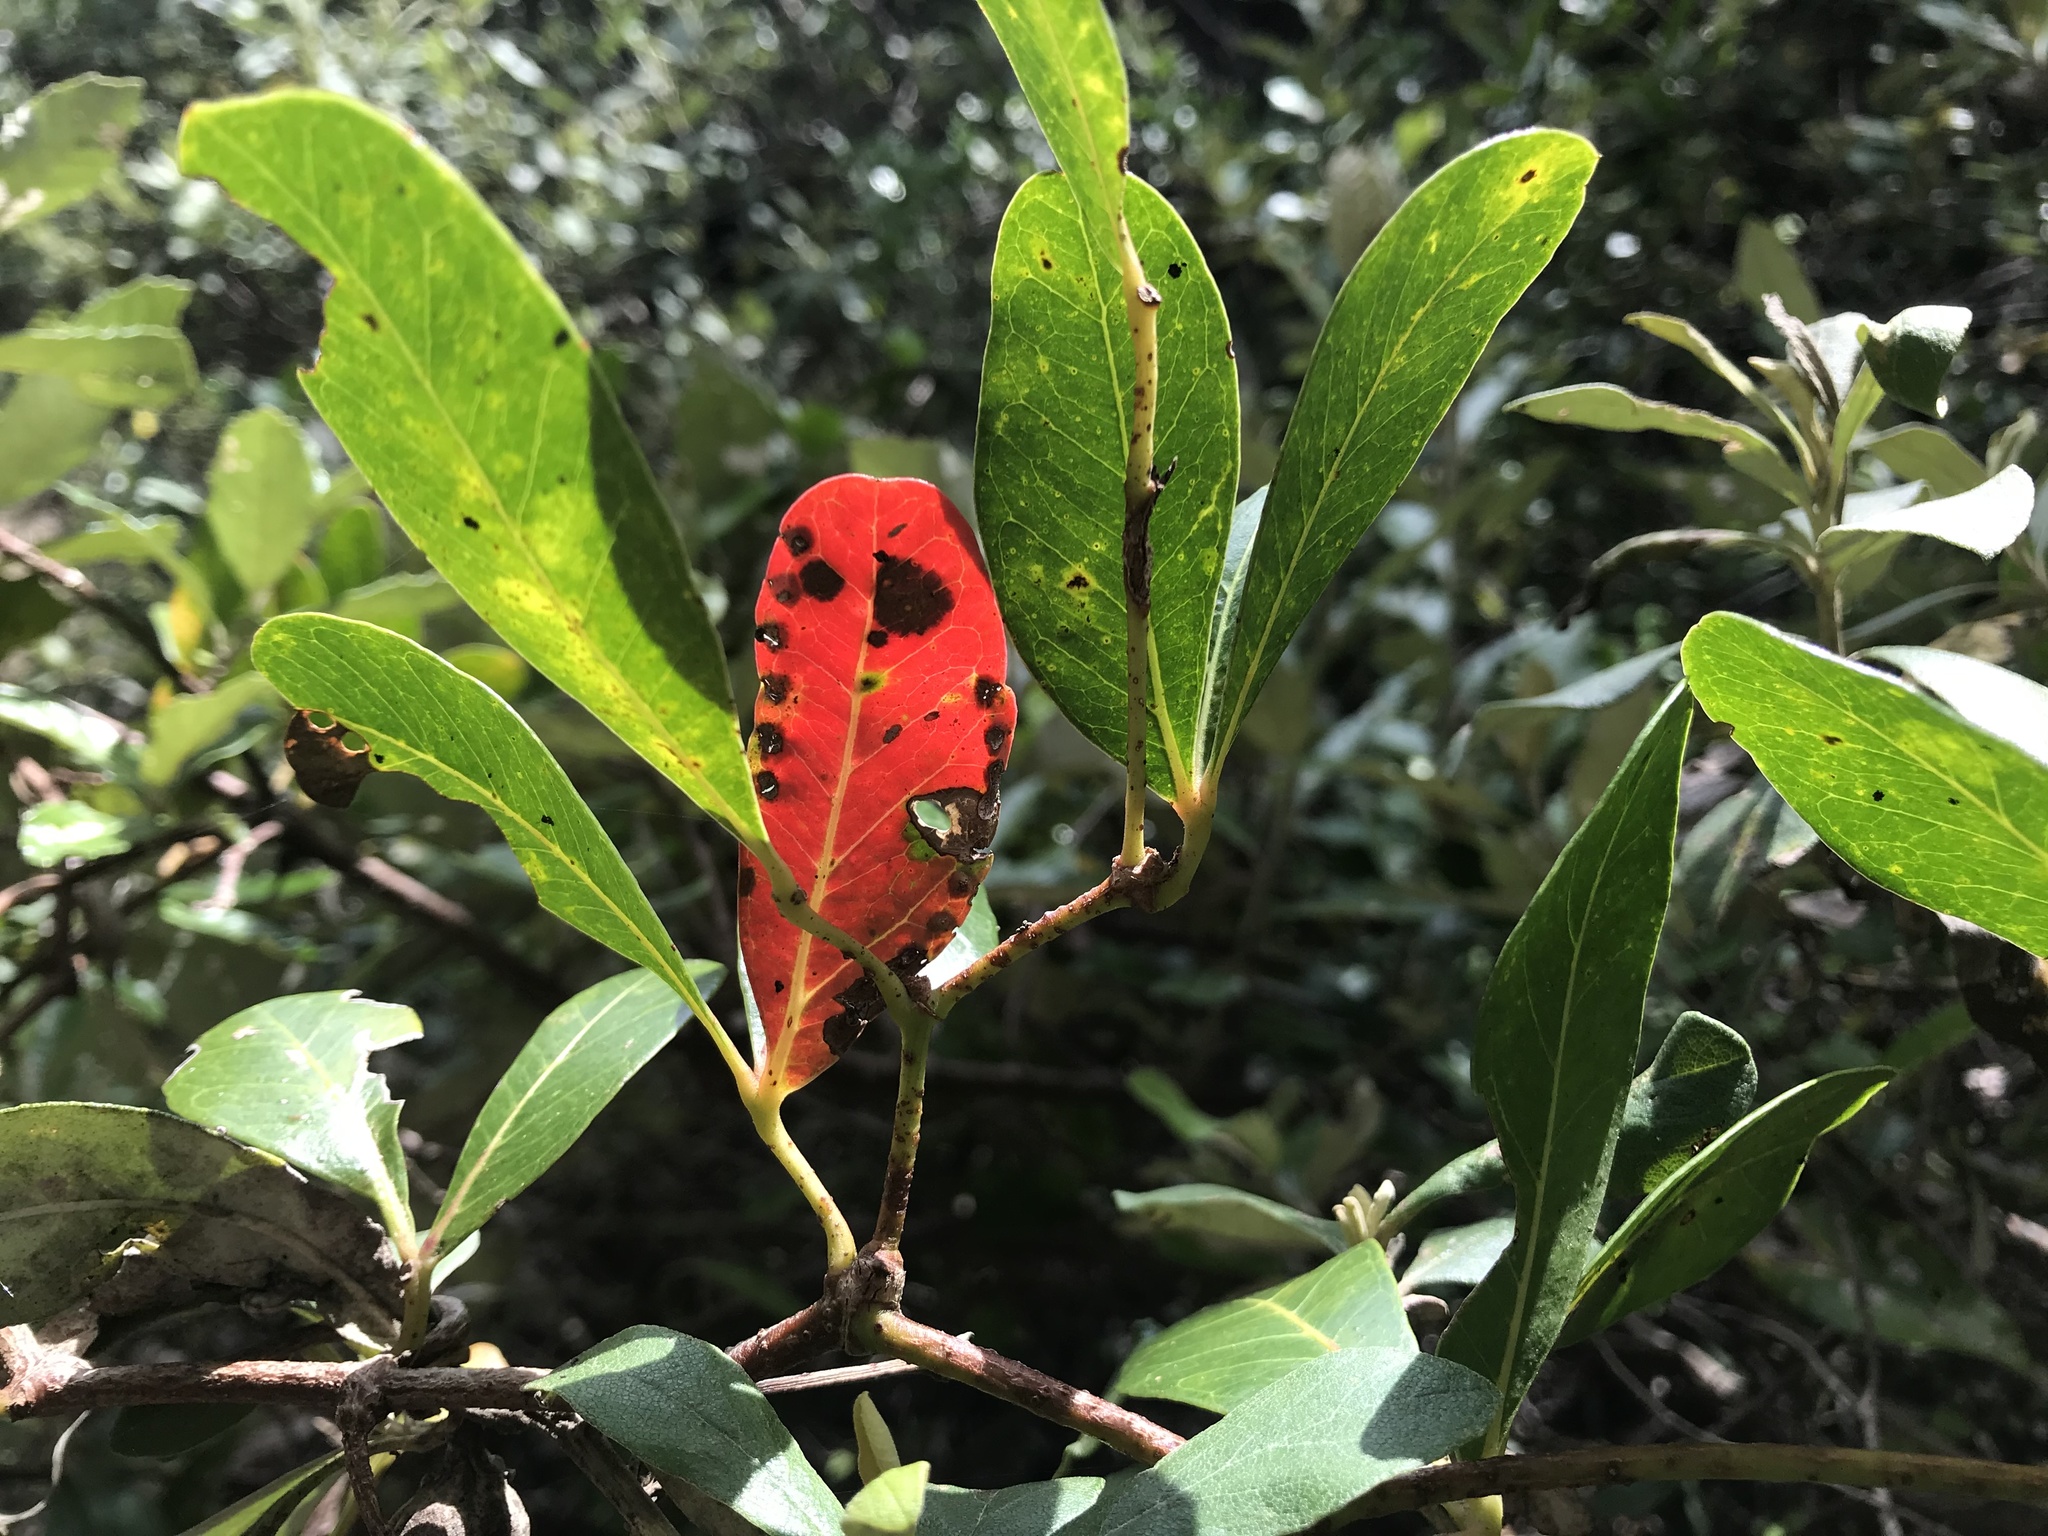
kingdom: Plantae
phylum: Tracheophyta
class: Magnoliopsida
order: Vitales
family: Vitaceae
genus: Rhoicissus
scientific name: Rhoicissus digitata
